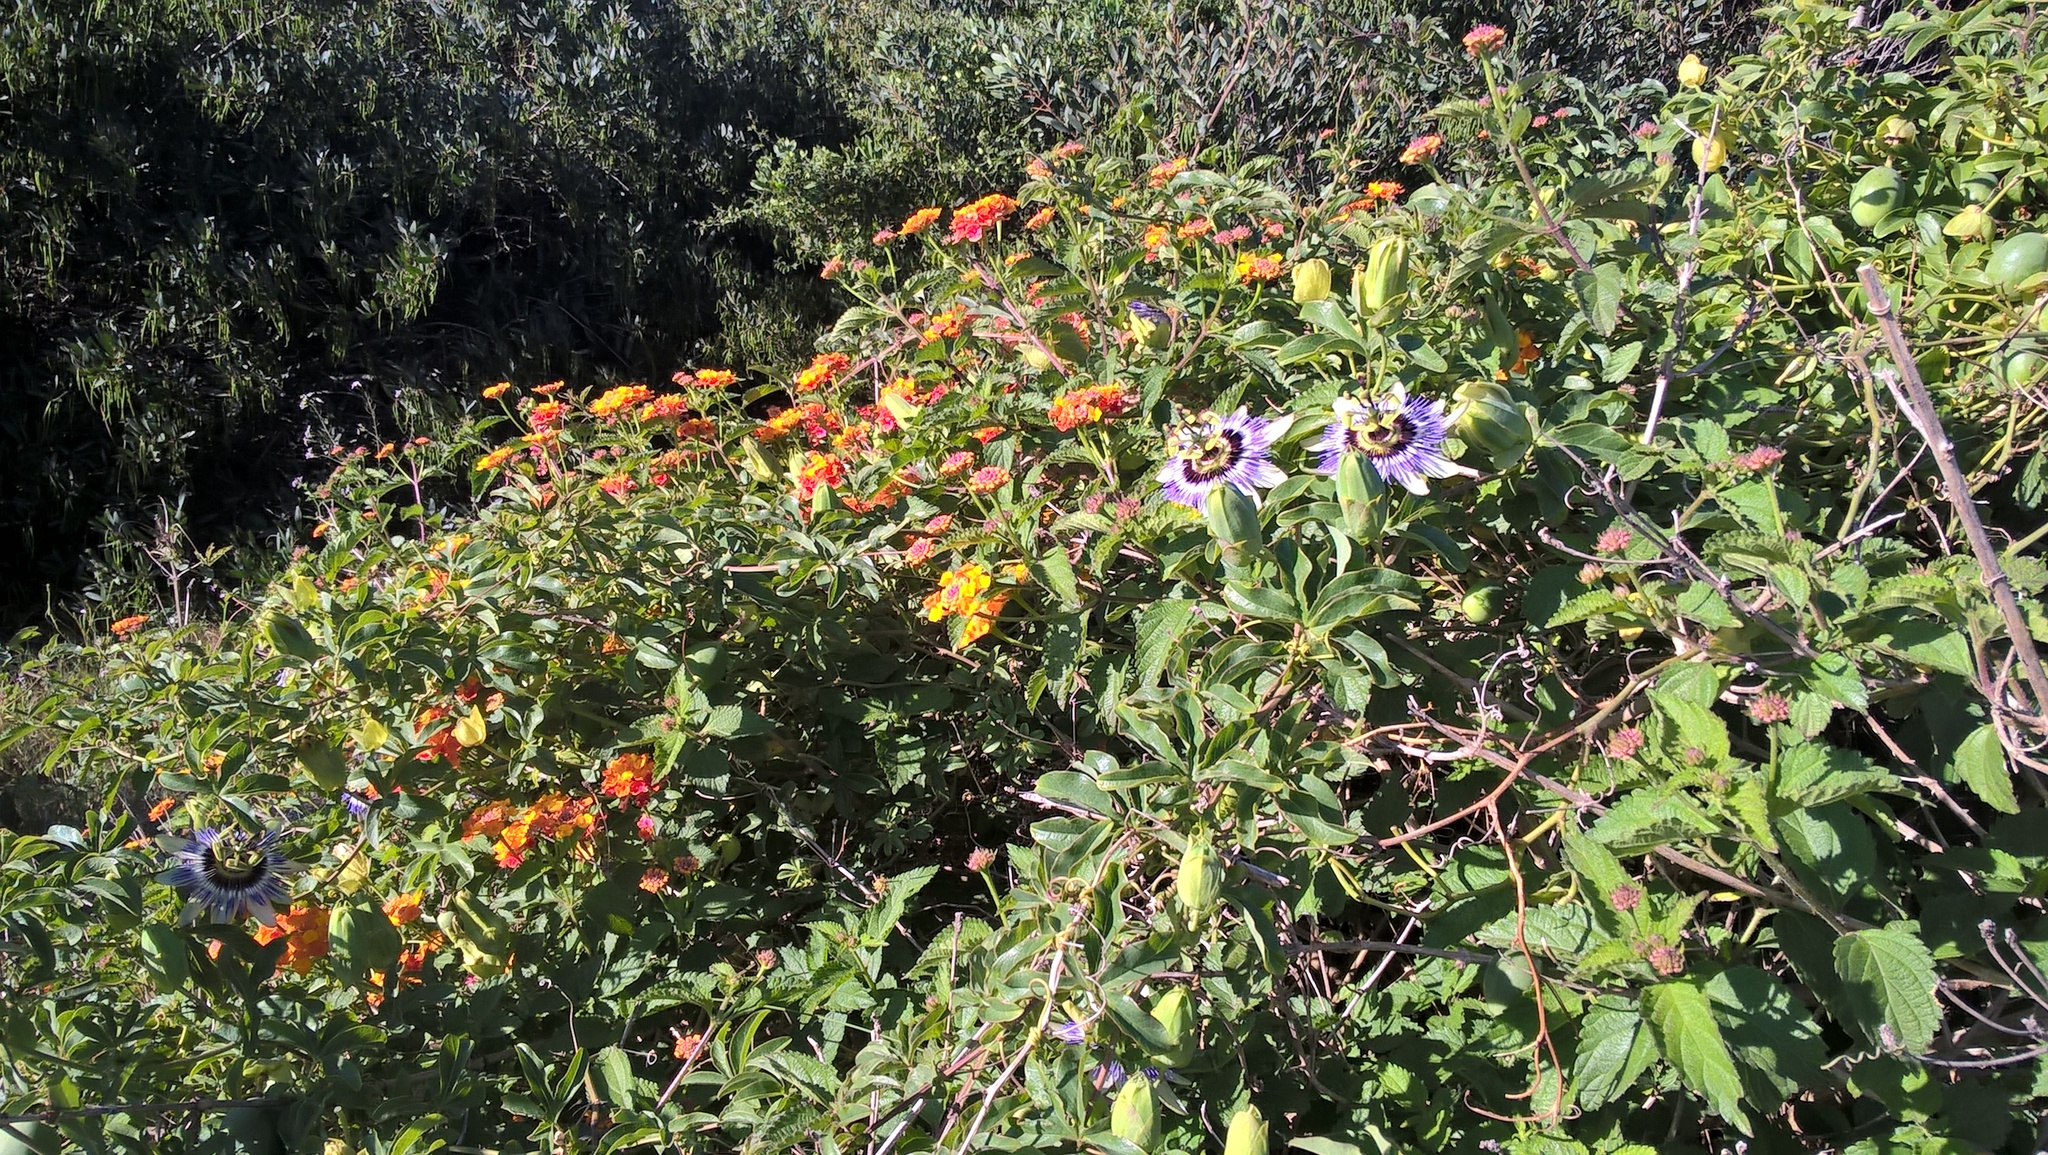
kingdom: Plantae
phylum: Tracheophyta
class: Magnoliopsida
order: Malpighiales
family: Passifloraceae
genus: Passiflora
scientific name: Passiflora caerulea
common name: Blue passionflower
